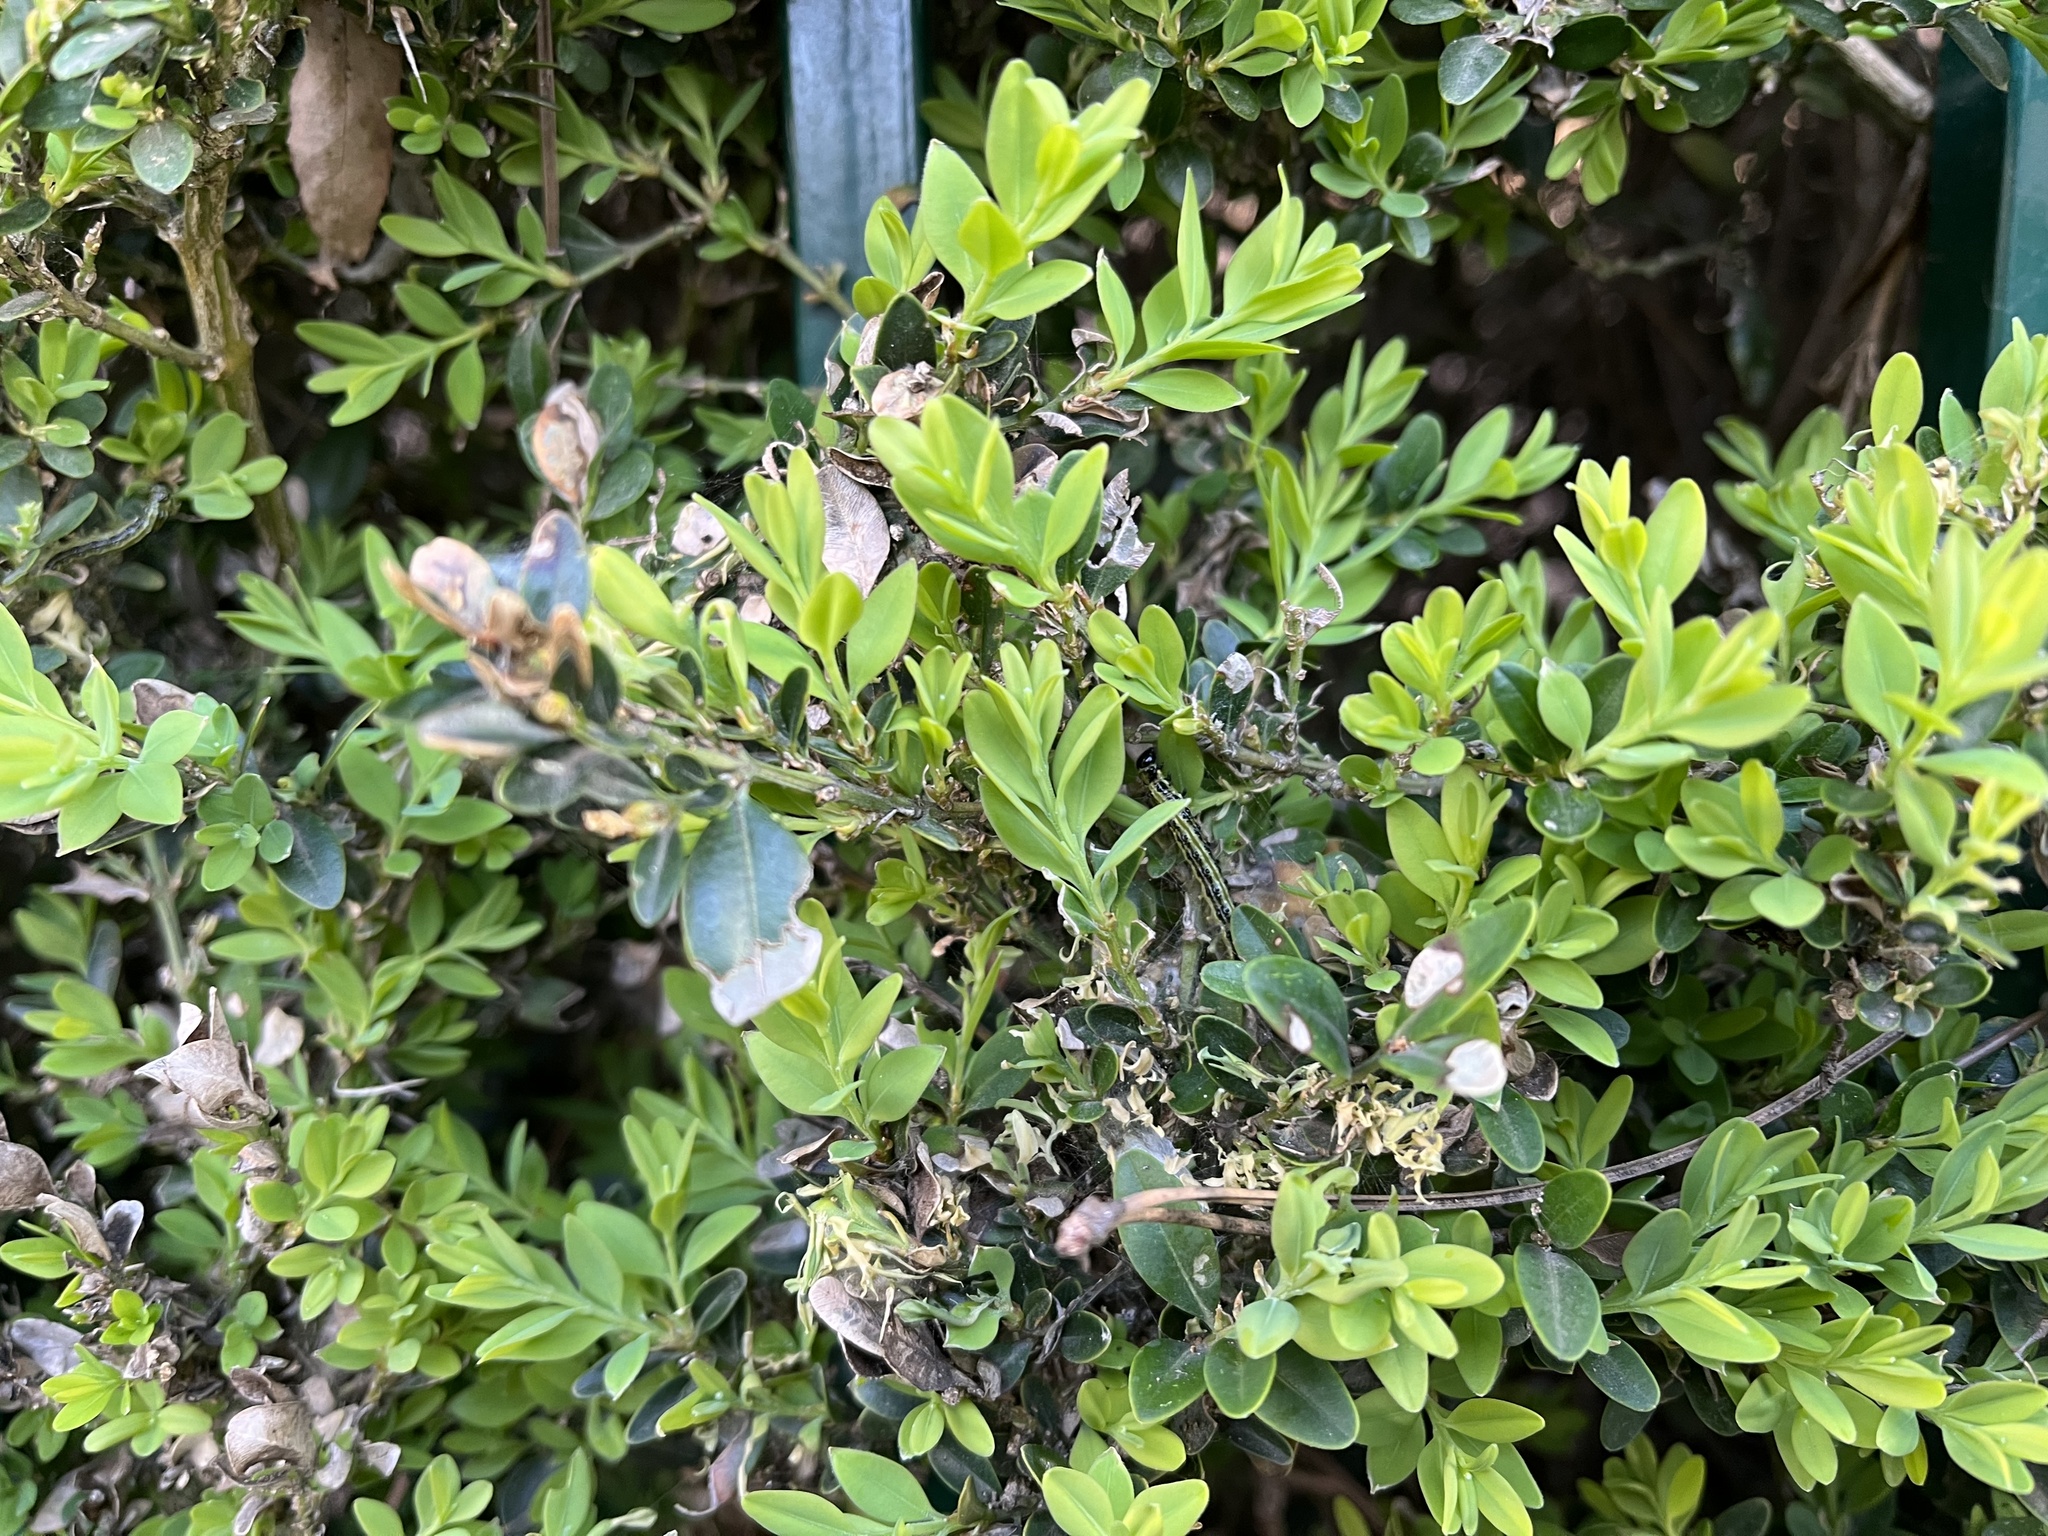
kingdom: Animalia
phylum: Arthropoda
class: Insecta
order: Lepidoptera
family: Crambidae
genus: Cydalima
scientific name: Cydalima perspectalis
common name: Box tree moth
